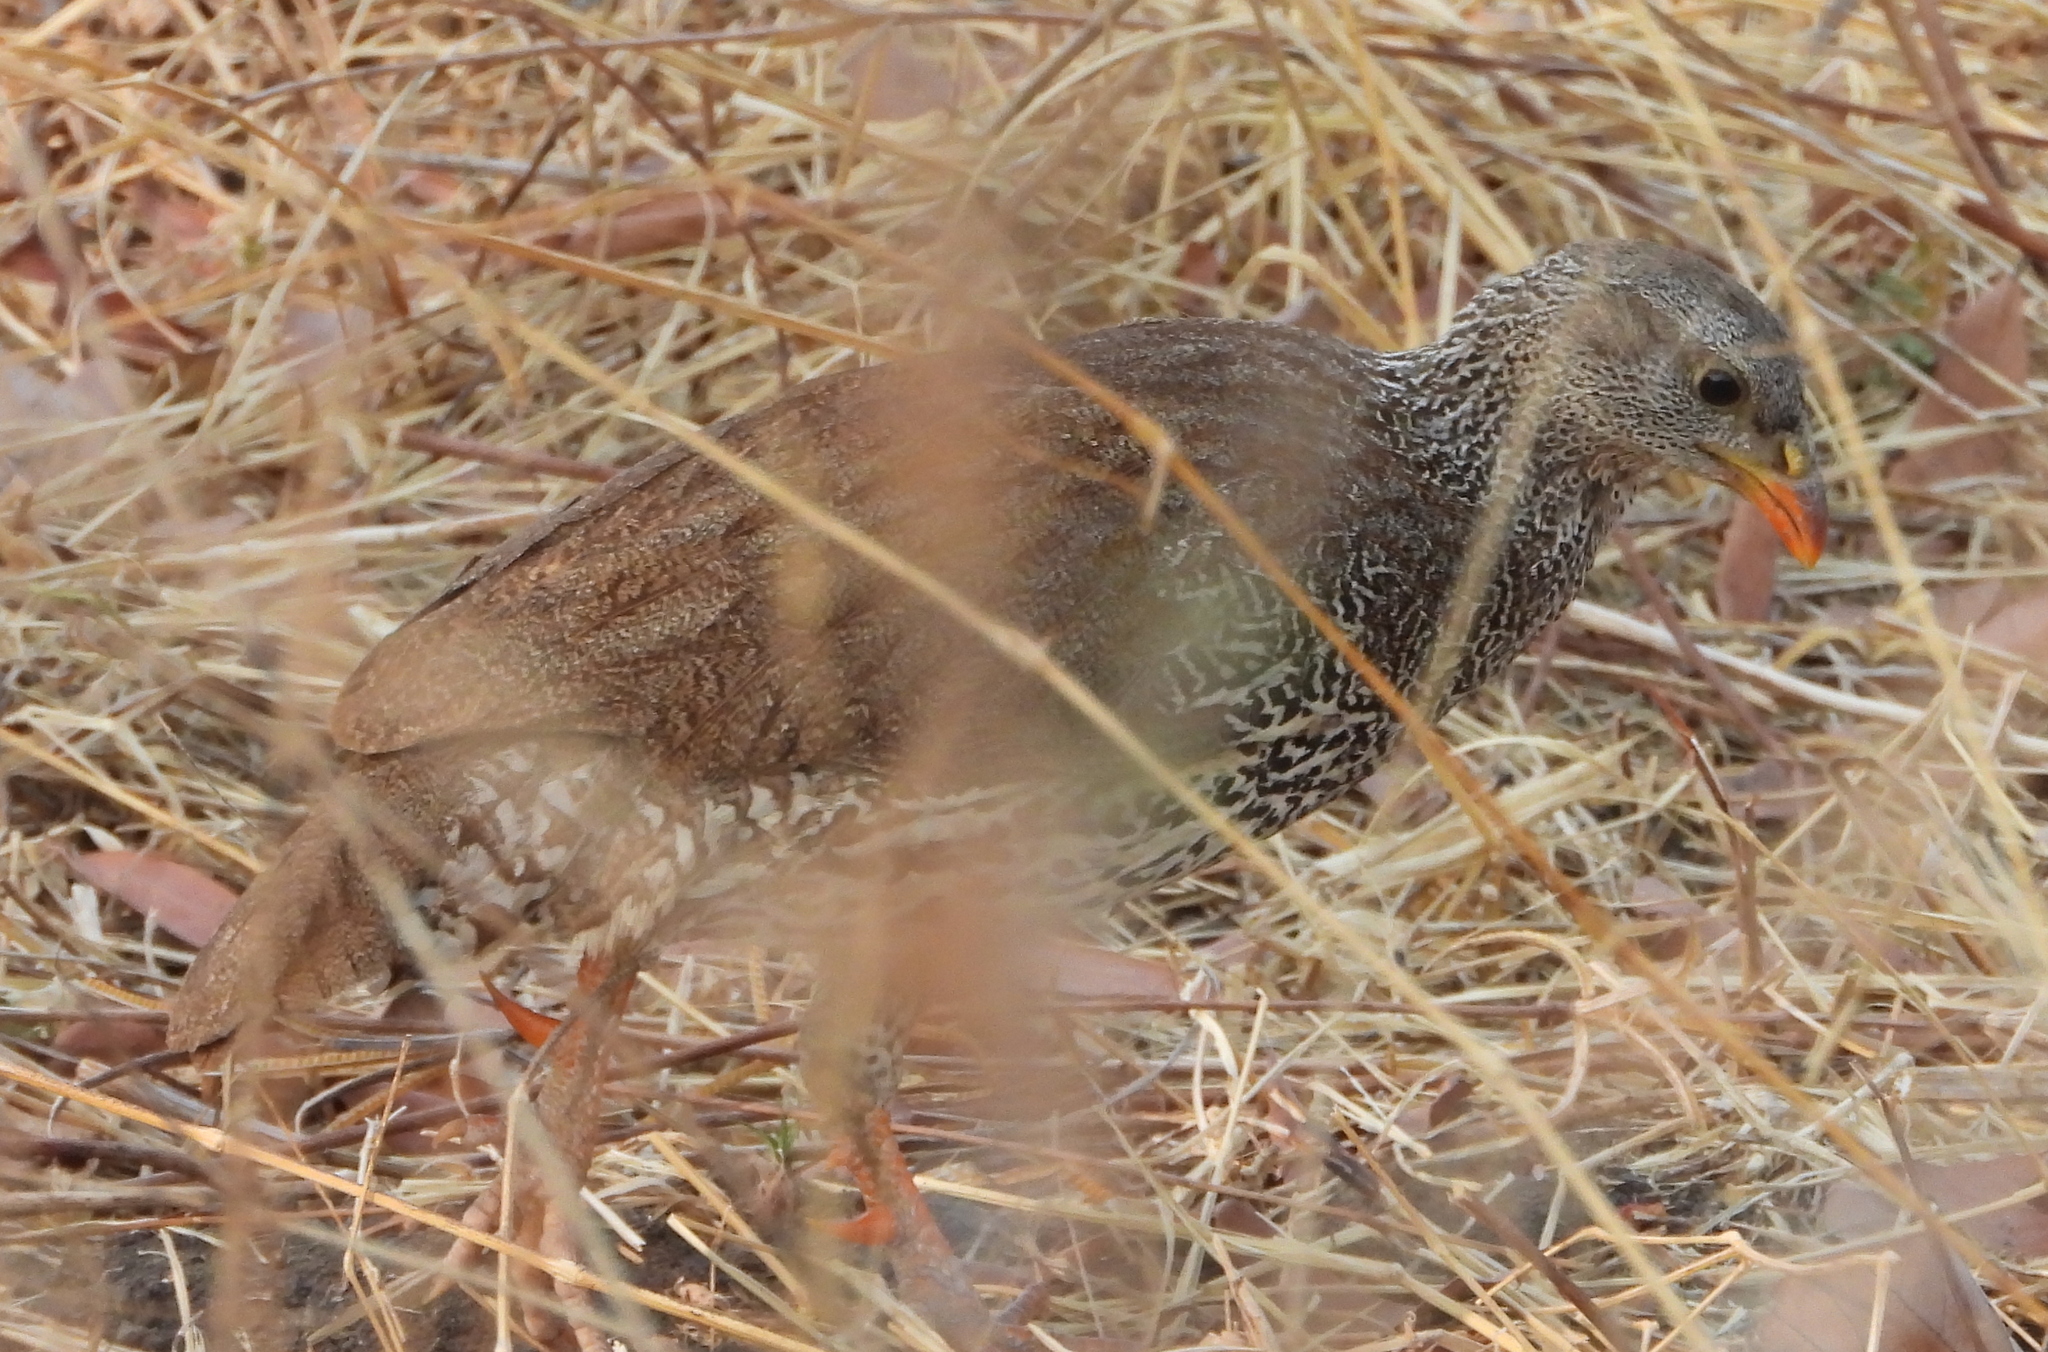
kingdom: Animalia
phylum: Chordata
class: Aves
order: Galliformes
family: Phasianidae
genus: Pternistis
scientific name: Pternistis natalensis
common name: Natal spurfowl
